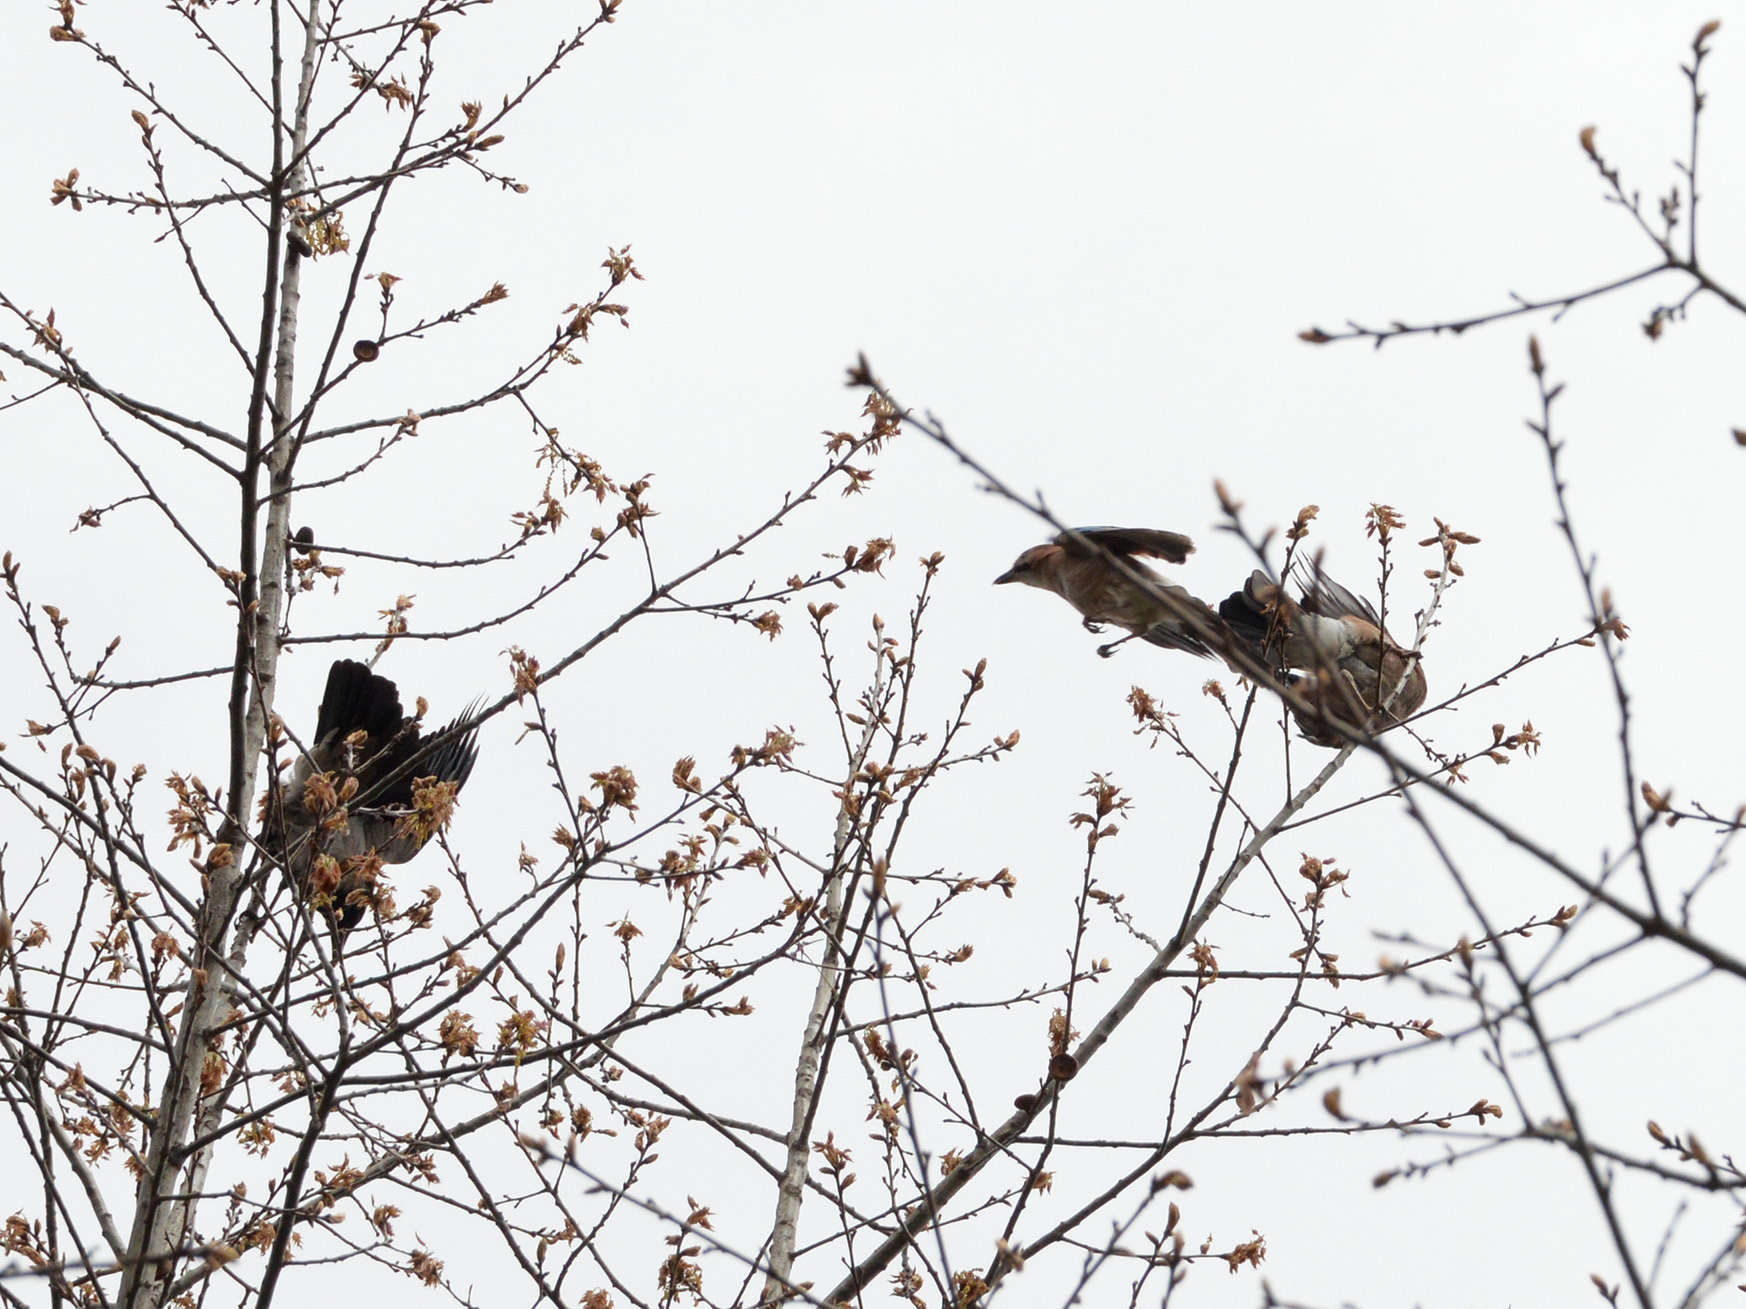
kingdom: Animalia
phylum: Chordata
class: Aves
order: Passeriformes
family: Corvidae
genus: Corvus
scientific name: Corvus cornix
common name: Hooded crow
